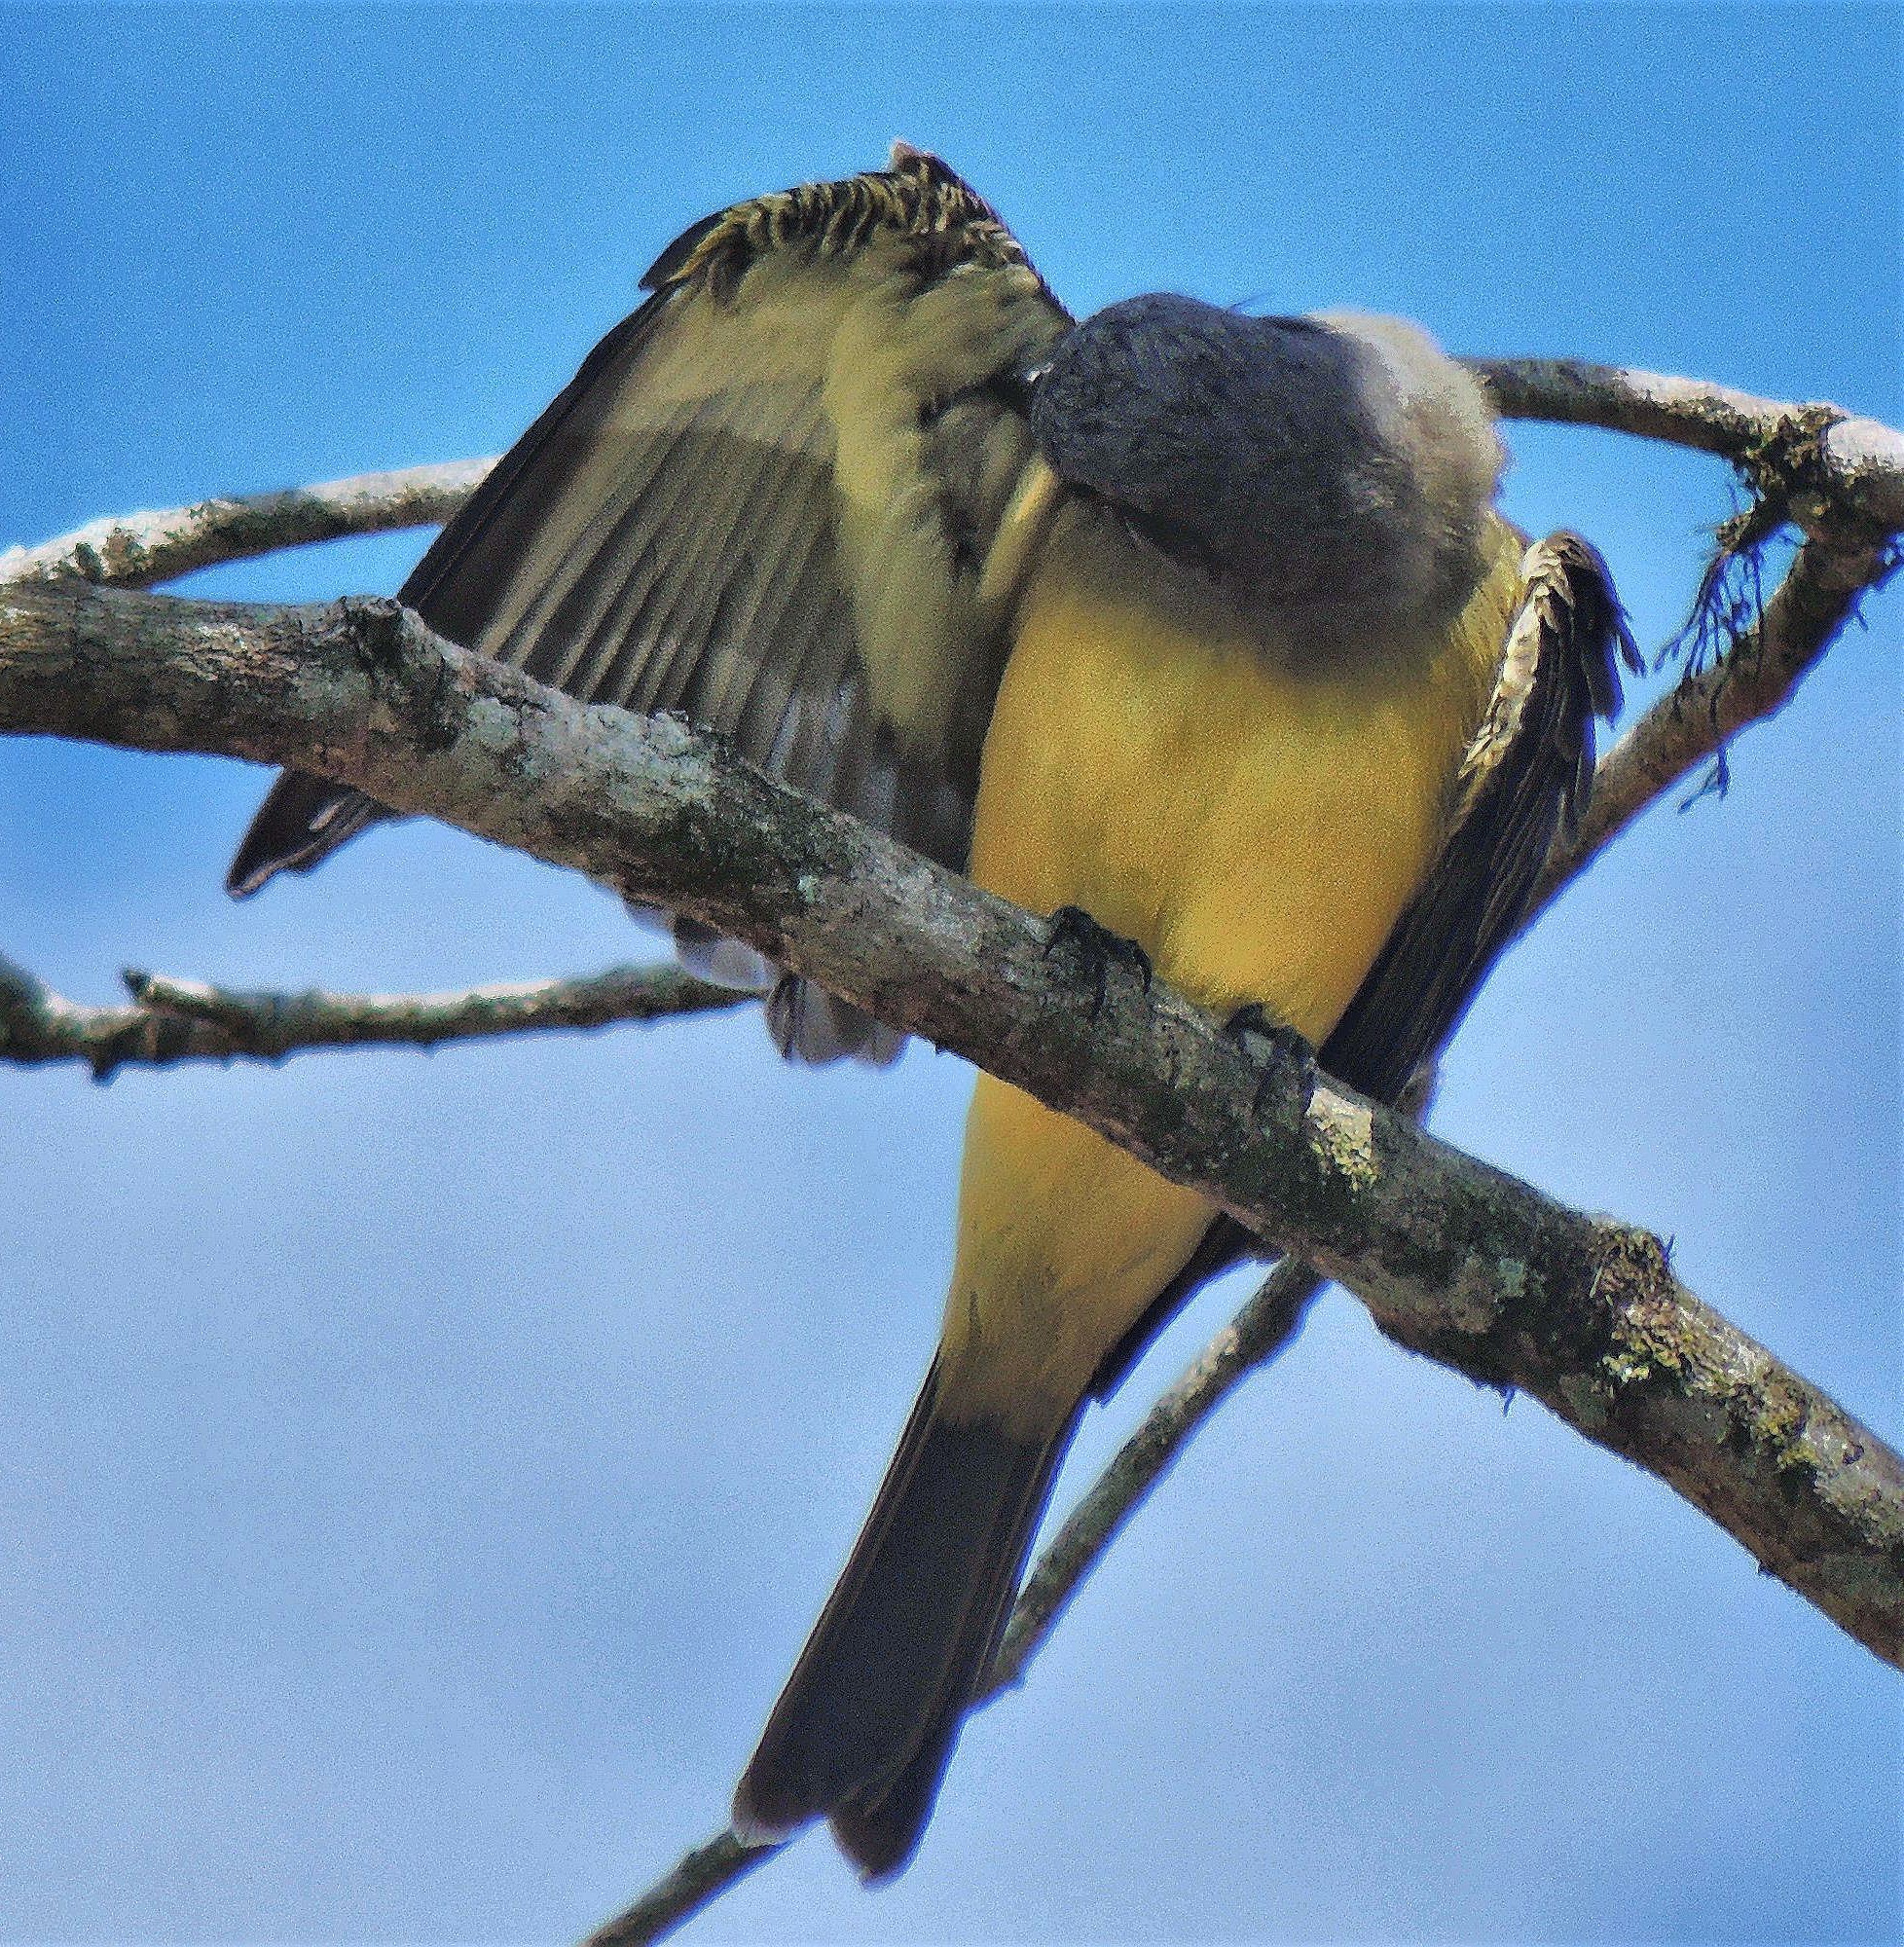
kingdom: Animalia
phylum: Chordata
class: Aves
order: Passeriformes
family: Tyrannidae
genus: Tyrannus
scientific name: Tyrannus melancholicus
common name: Tropical kingbird
